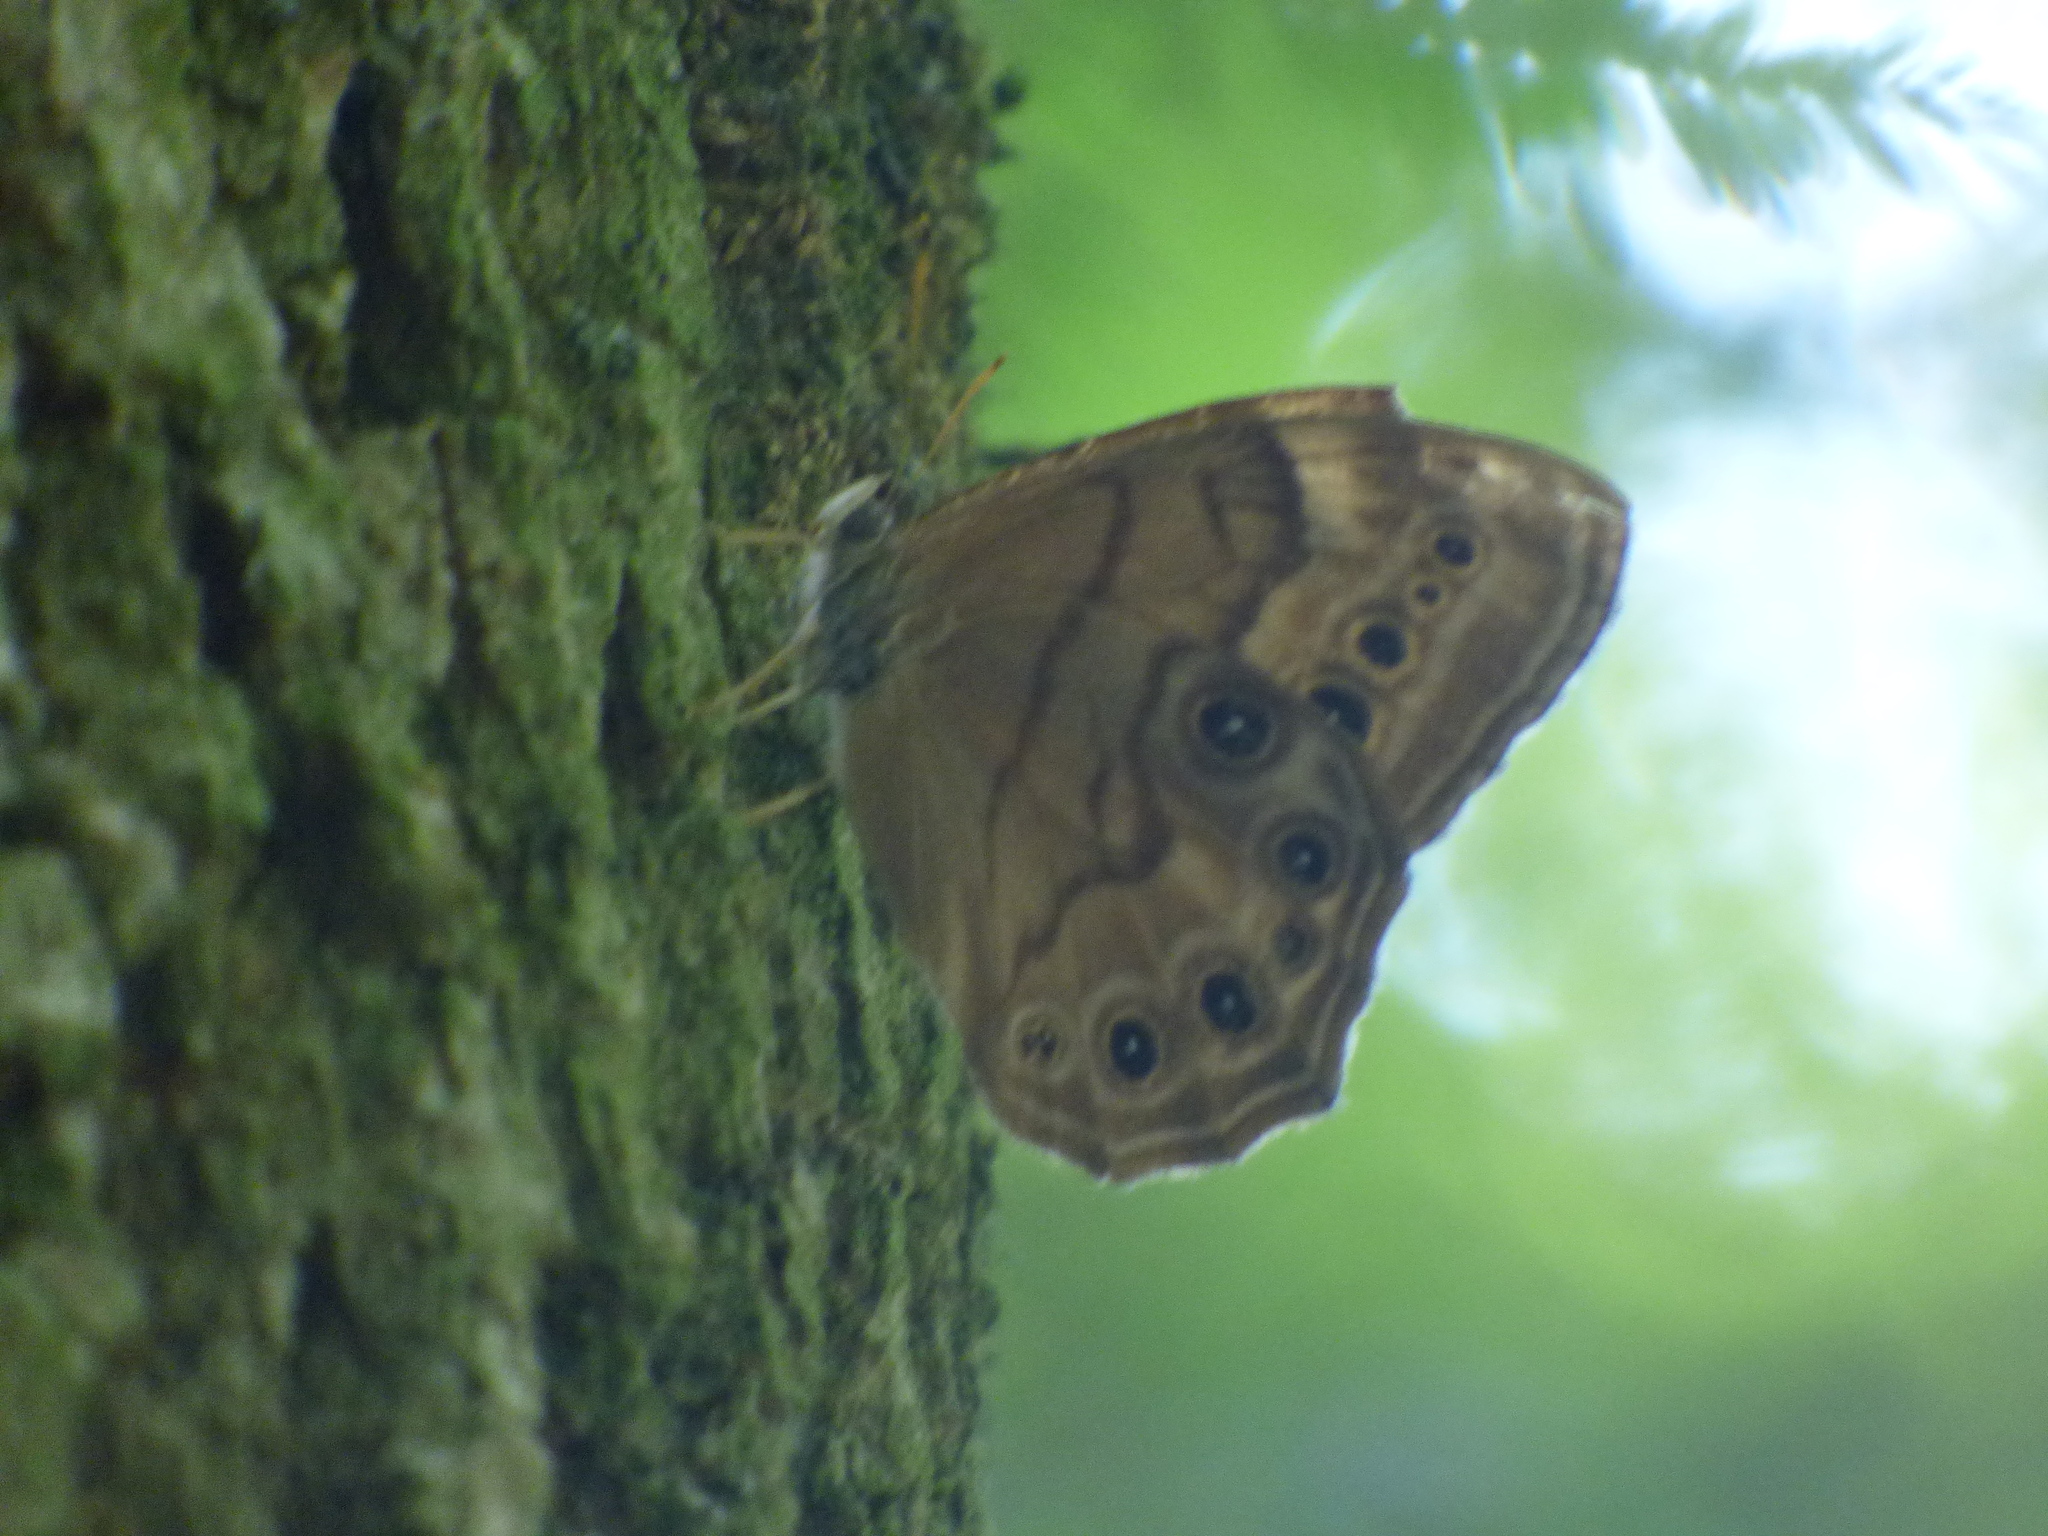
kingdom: Animalia
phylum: Arthropoda
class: Insecta
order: Lepidoptera
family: Nymphalidae
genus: Lethe
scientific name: Lethe anthedon
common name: Northern pearly-eye
